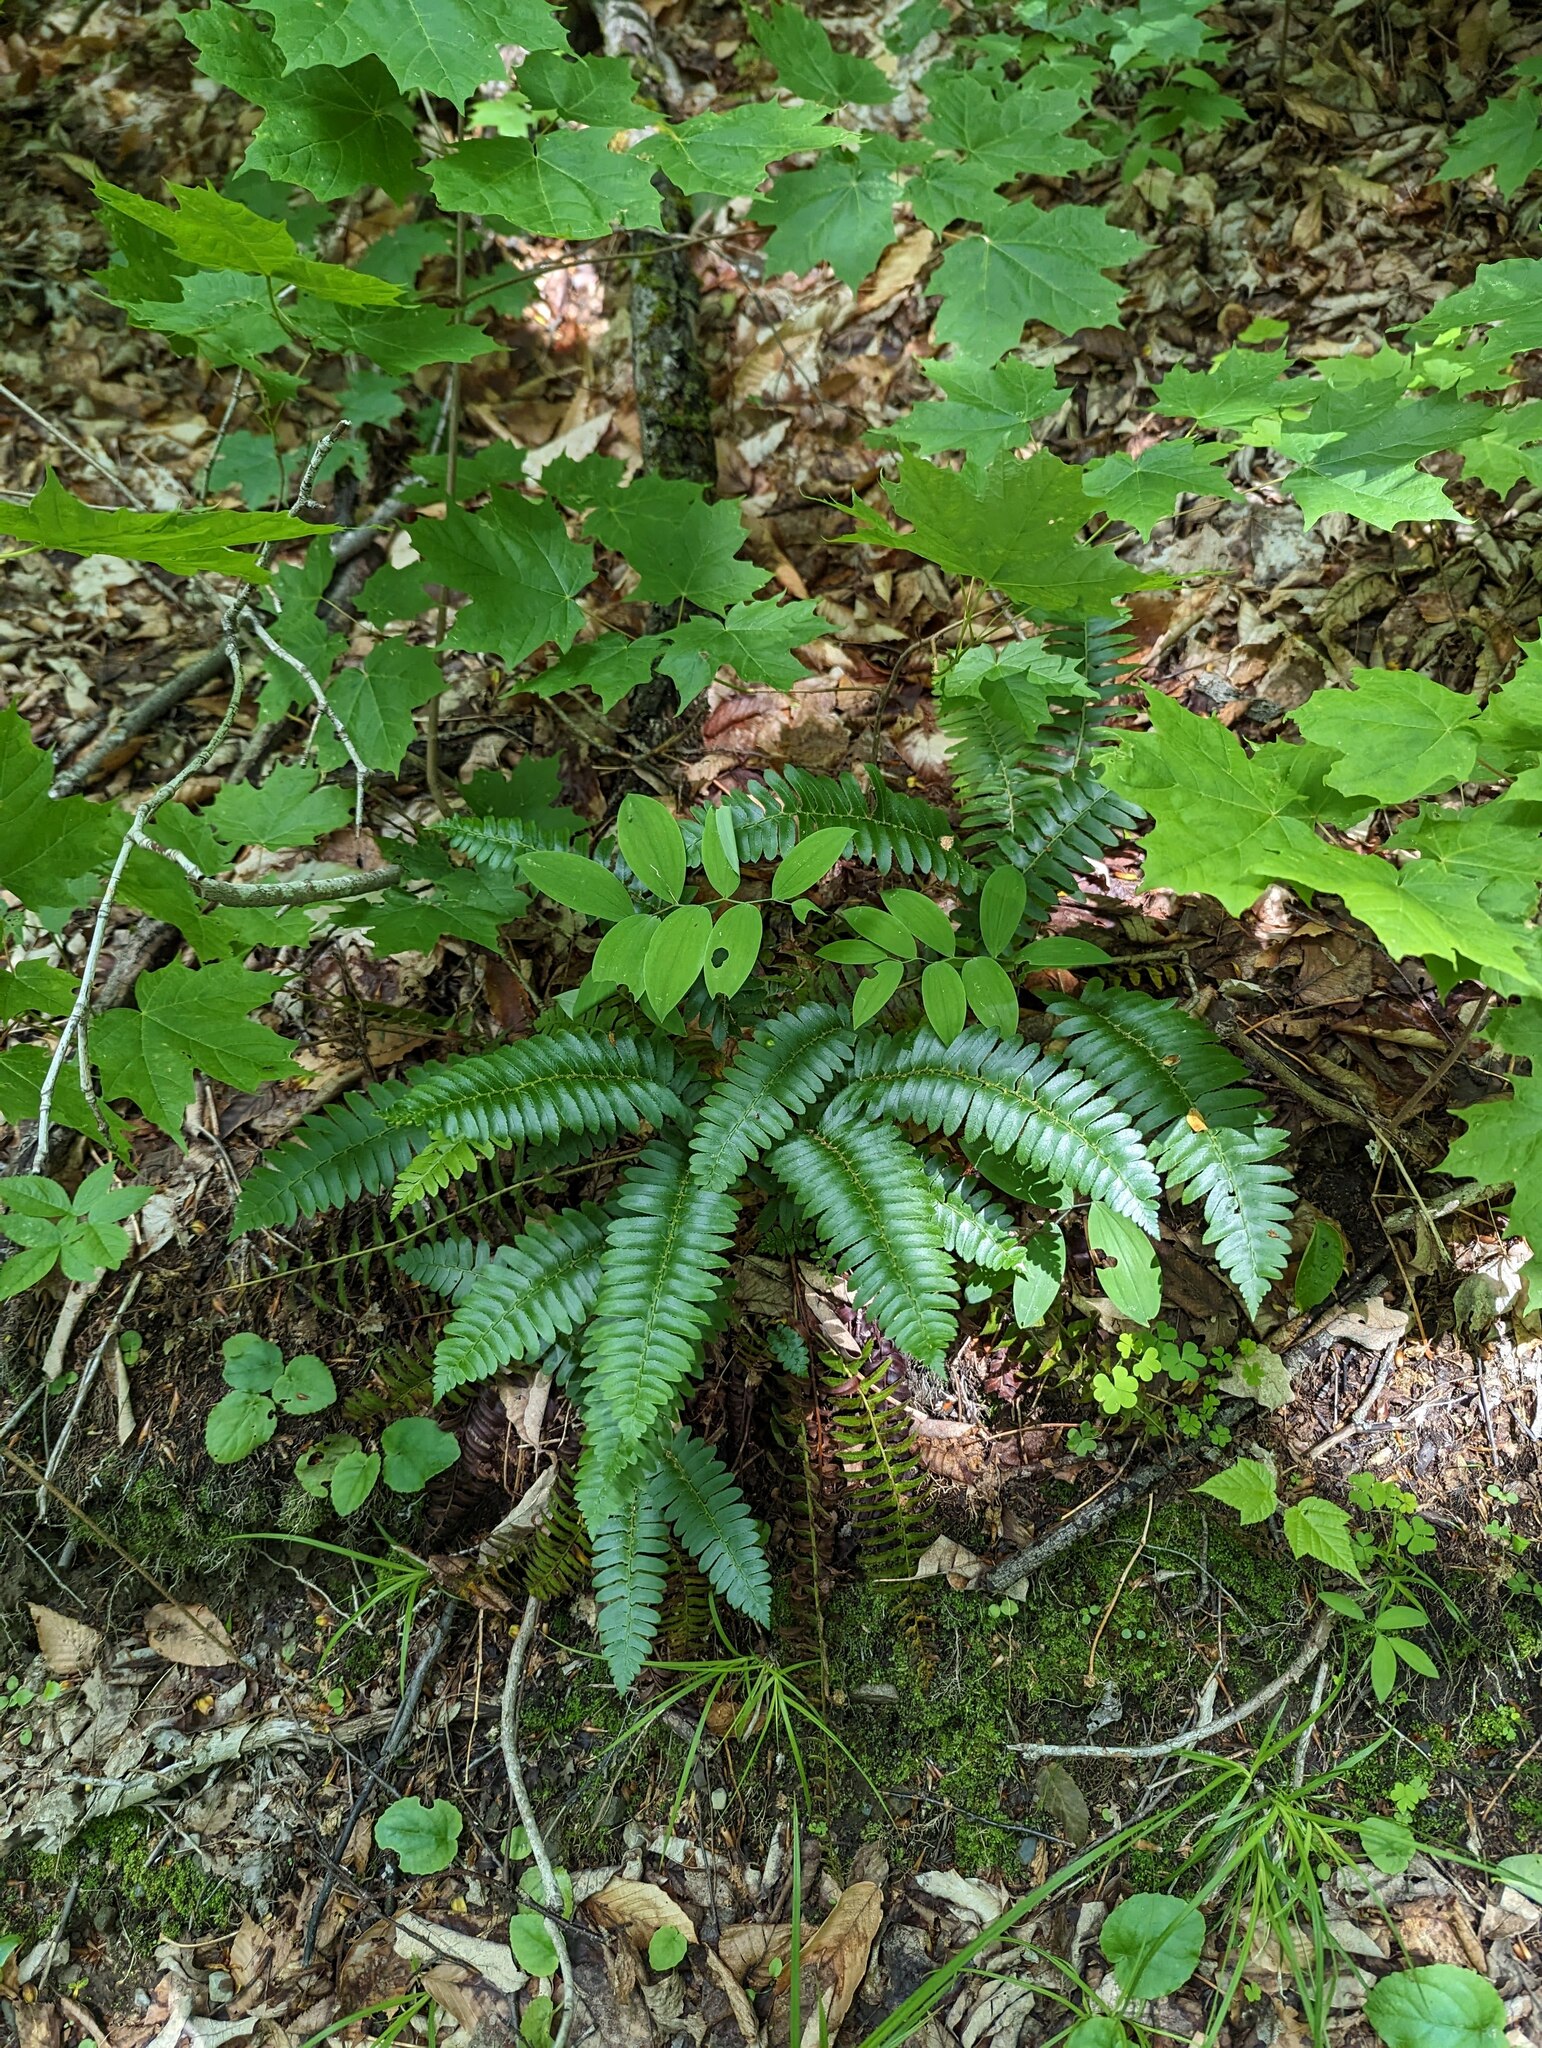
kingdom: Plantae
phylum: Tracheophyta
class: Polypodiopsida
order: Polypodiales
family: Dryopteridaceae
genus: Polystichum
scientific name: Polystichum acrostichoides
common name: Christmas fern
